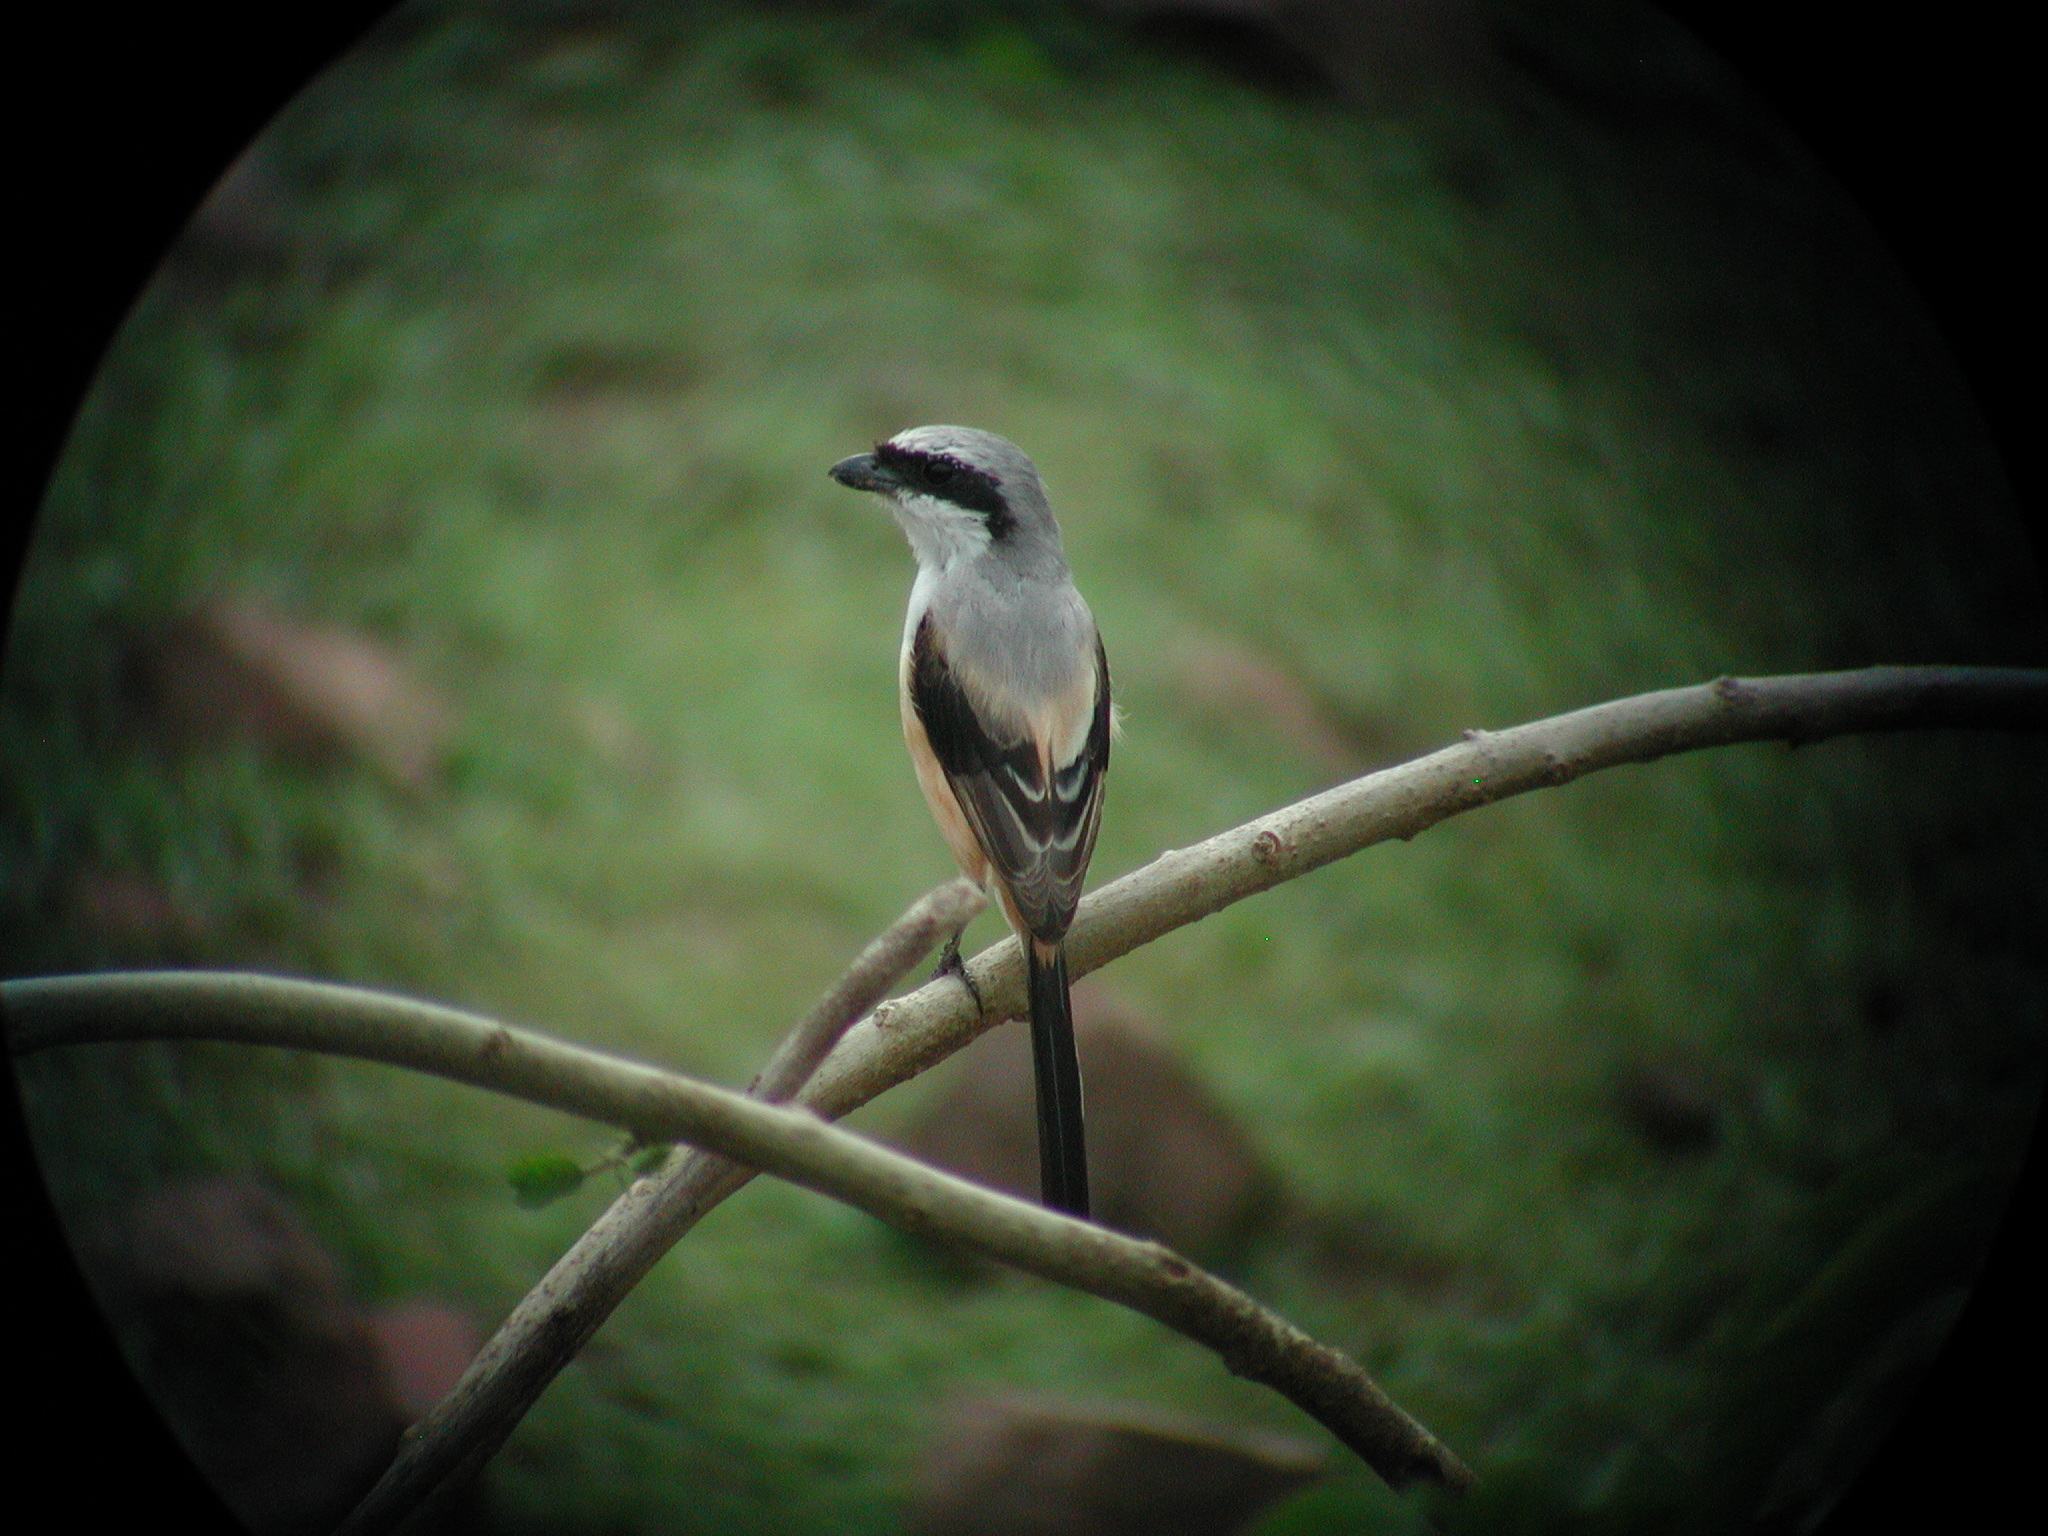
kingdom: Animalia
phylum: Chordata
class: Aves
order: Passeriformes
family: Laniidae
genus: Lanius
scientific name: Lanius schach
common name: Long-tailed shrike
